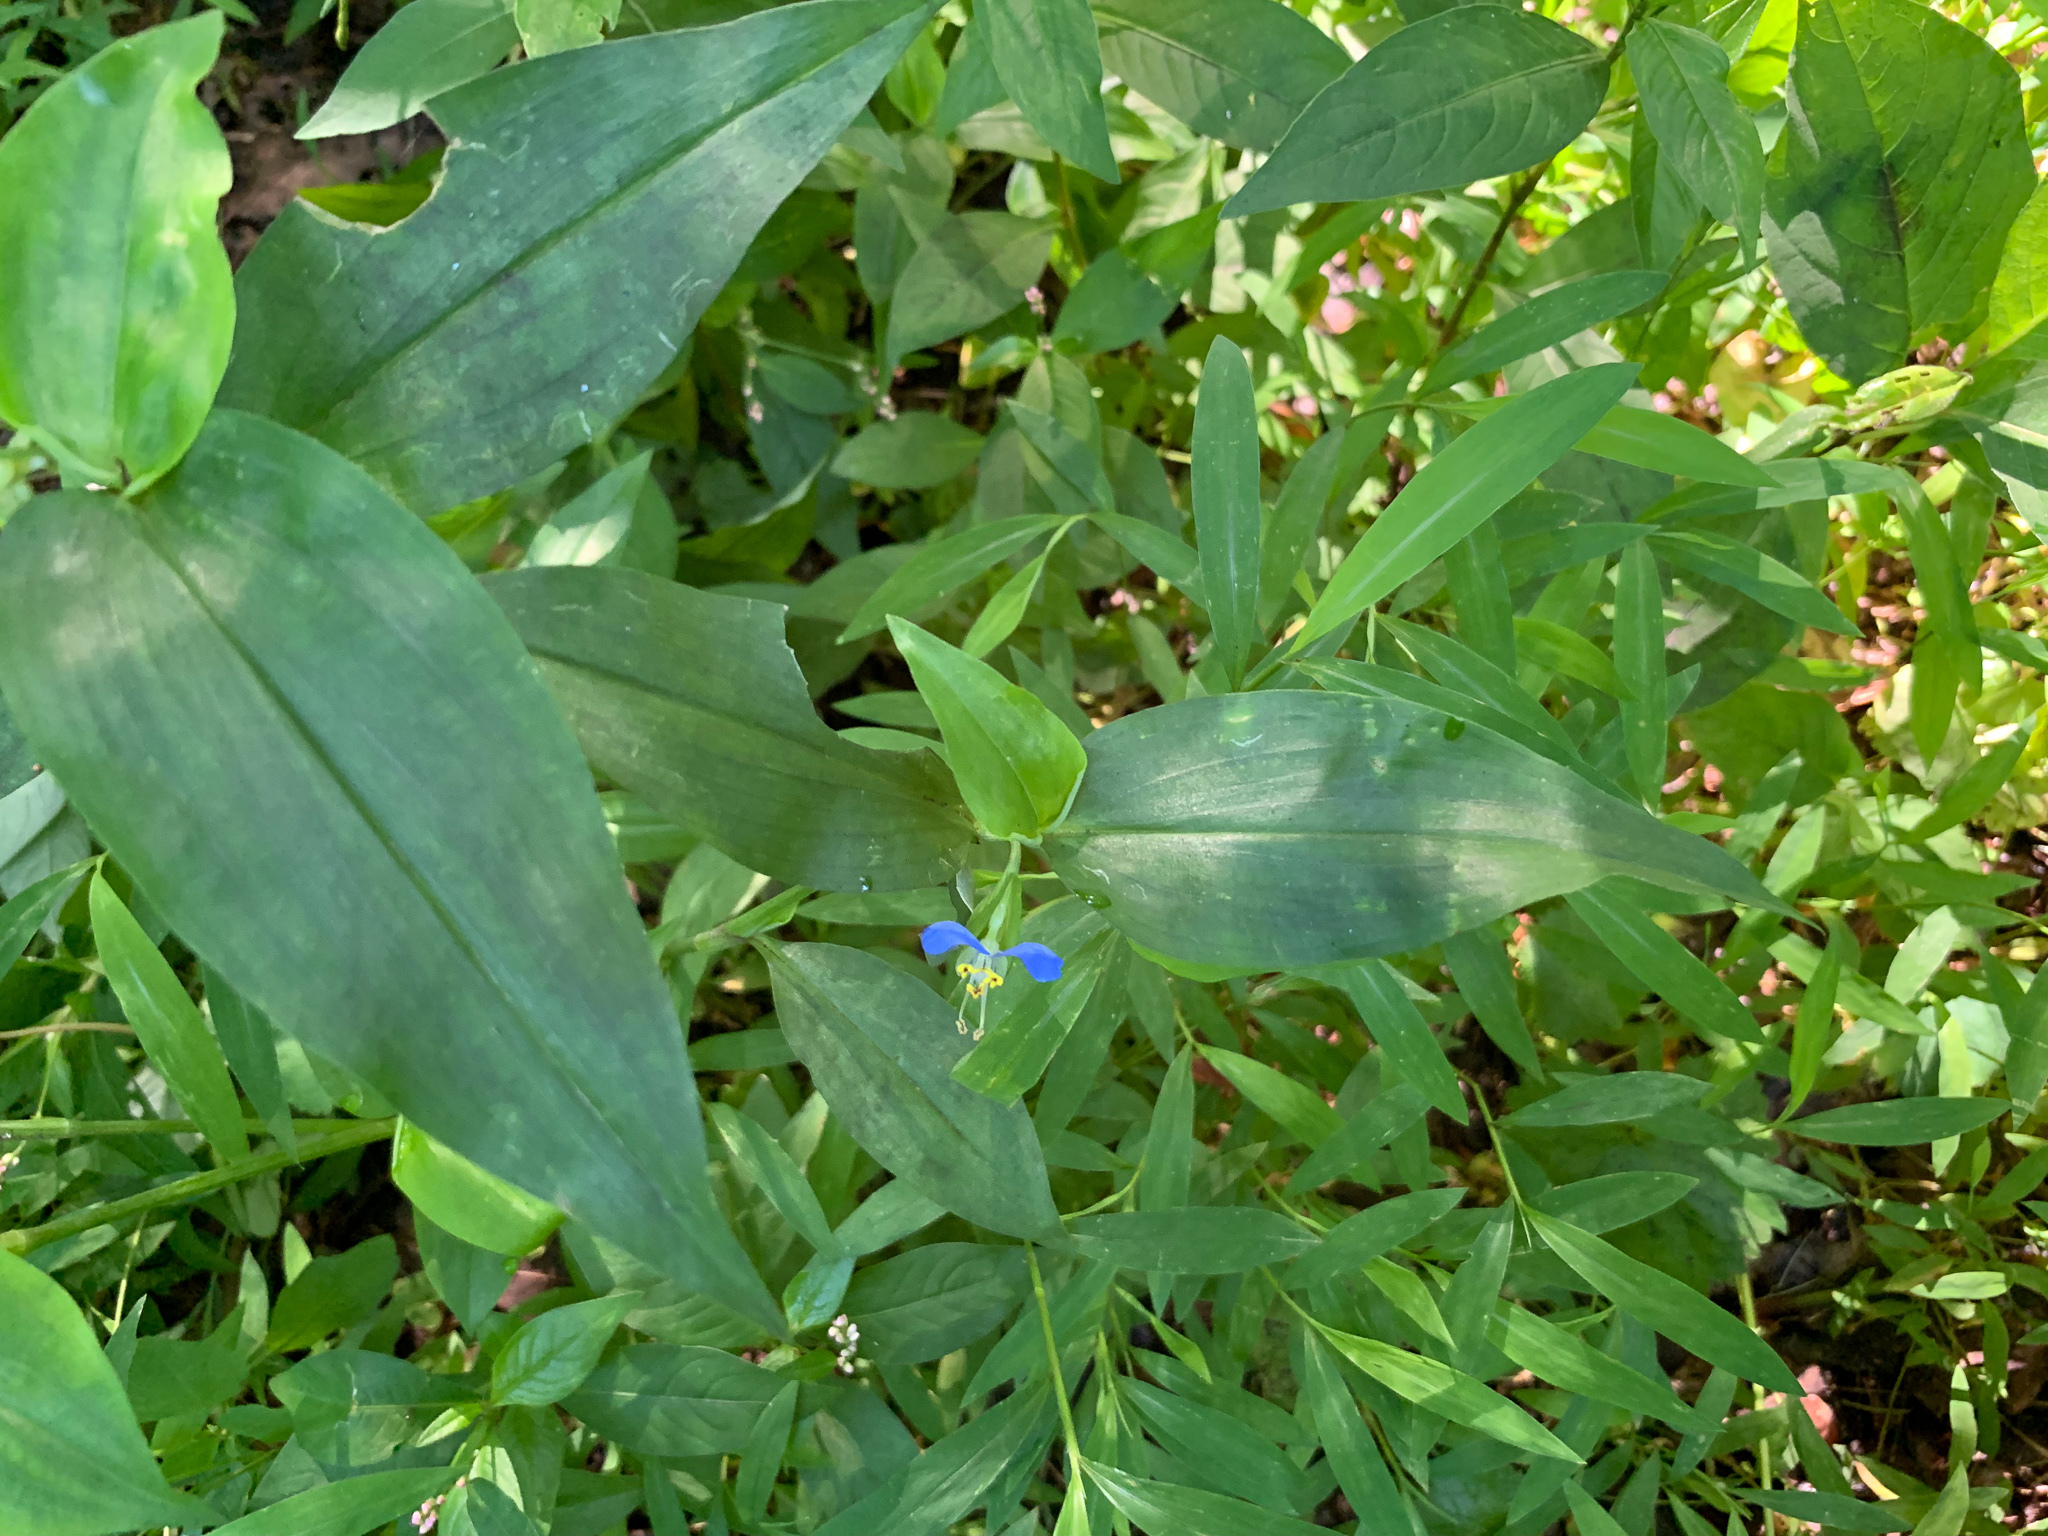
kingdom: Plantae
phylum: Tracheophyta
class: Liliopsida
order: Commelinales
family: Commelinaceae
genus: Commelina
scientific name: Commelina communis
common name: Asiatic dayflower
